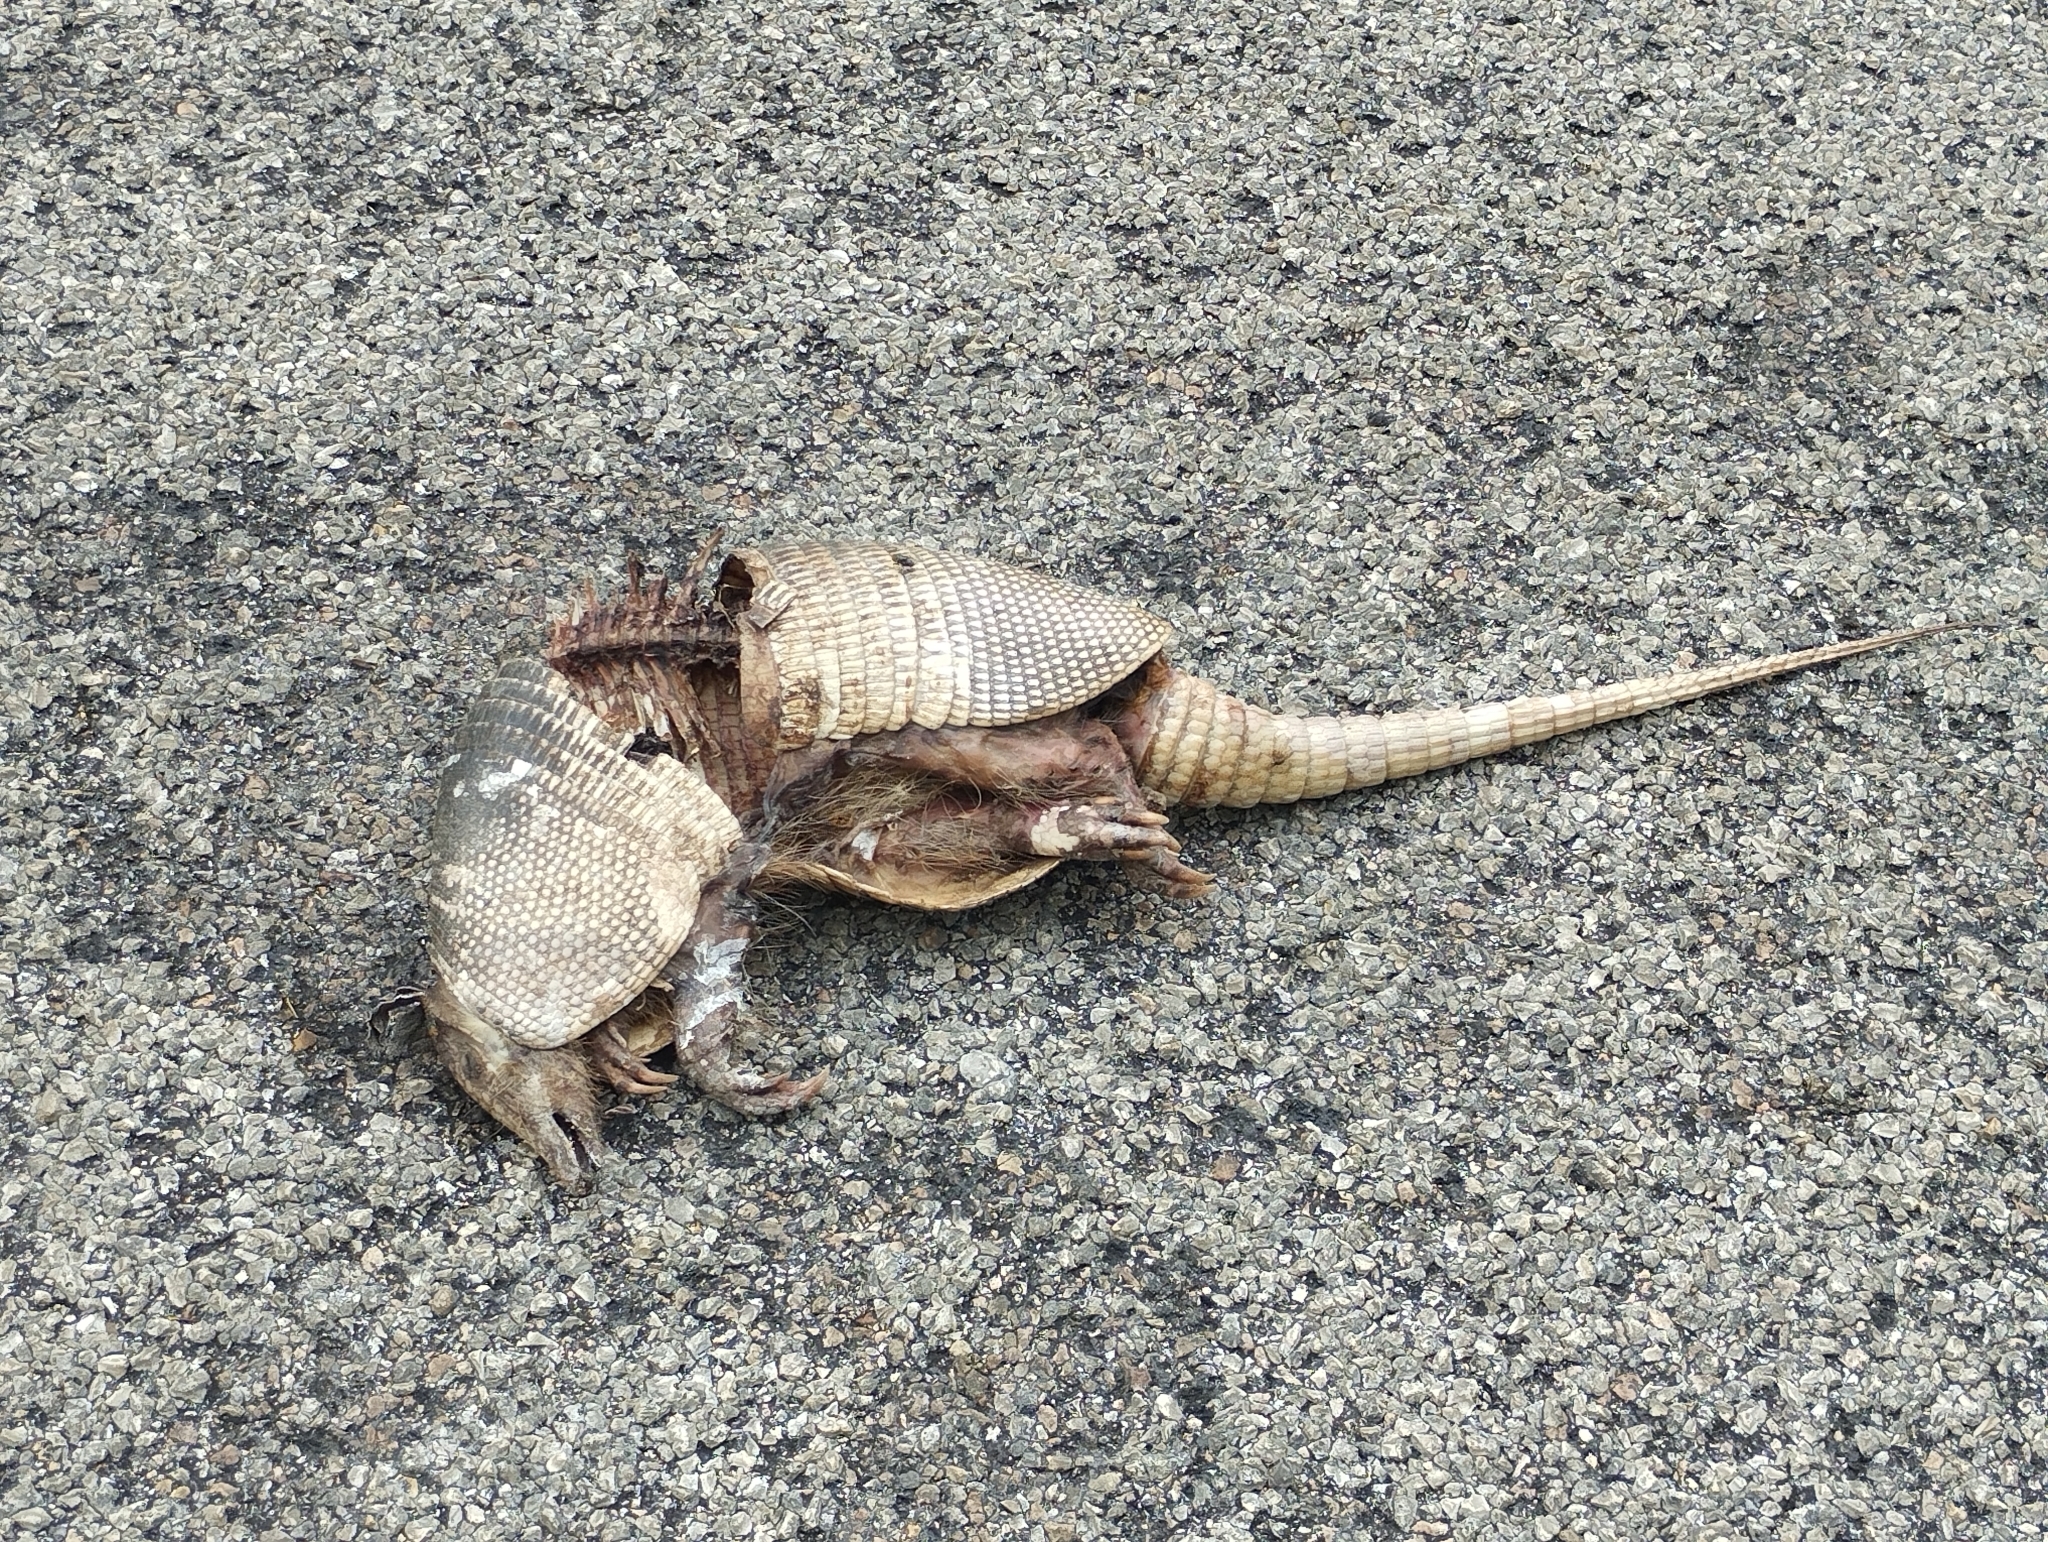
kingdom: Animalia
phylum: Chordata
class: Mammalia
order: Cingulata
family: Dasypodidae
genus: Dasypus
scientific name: Dasypus novemcinctus
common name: Nine-banded armadillo
